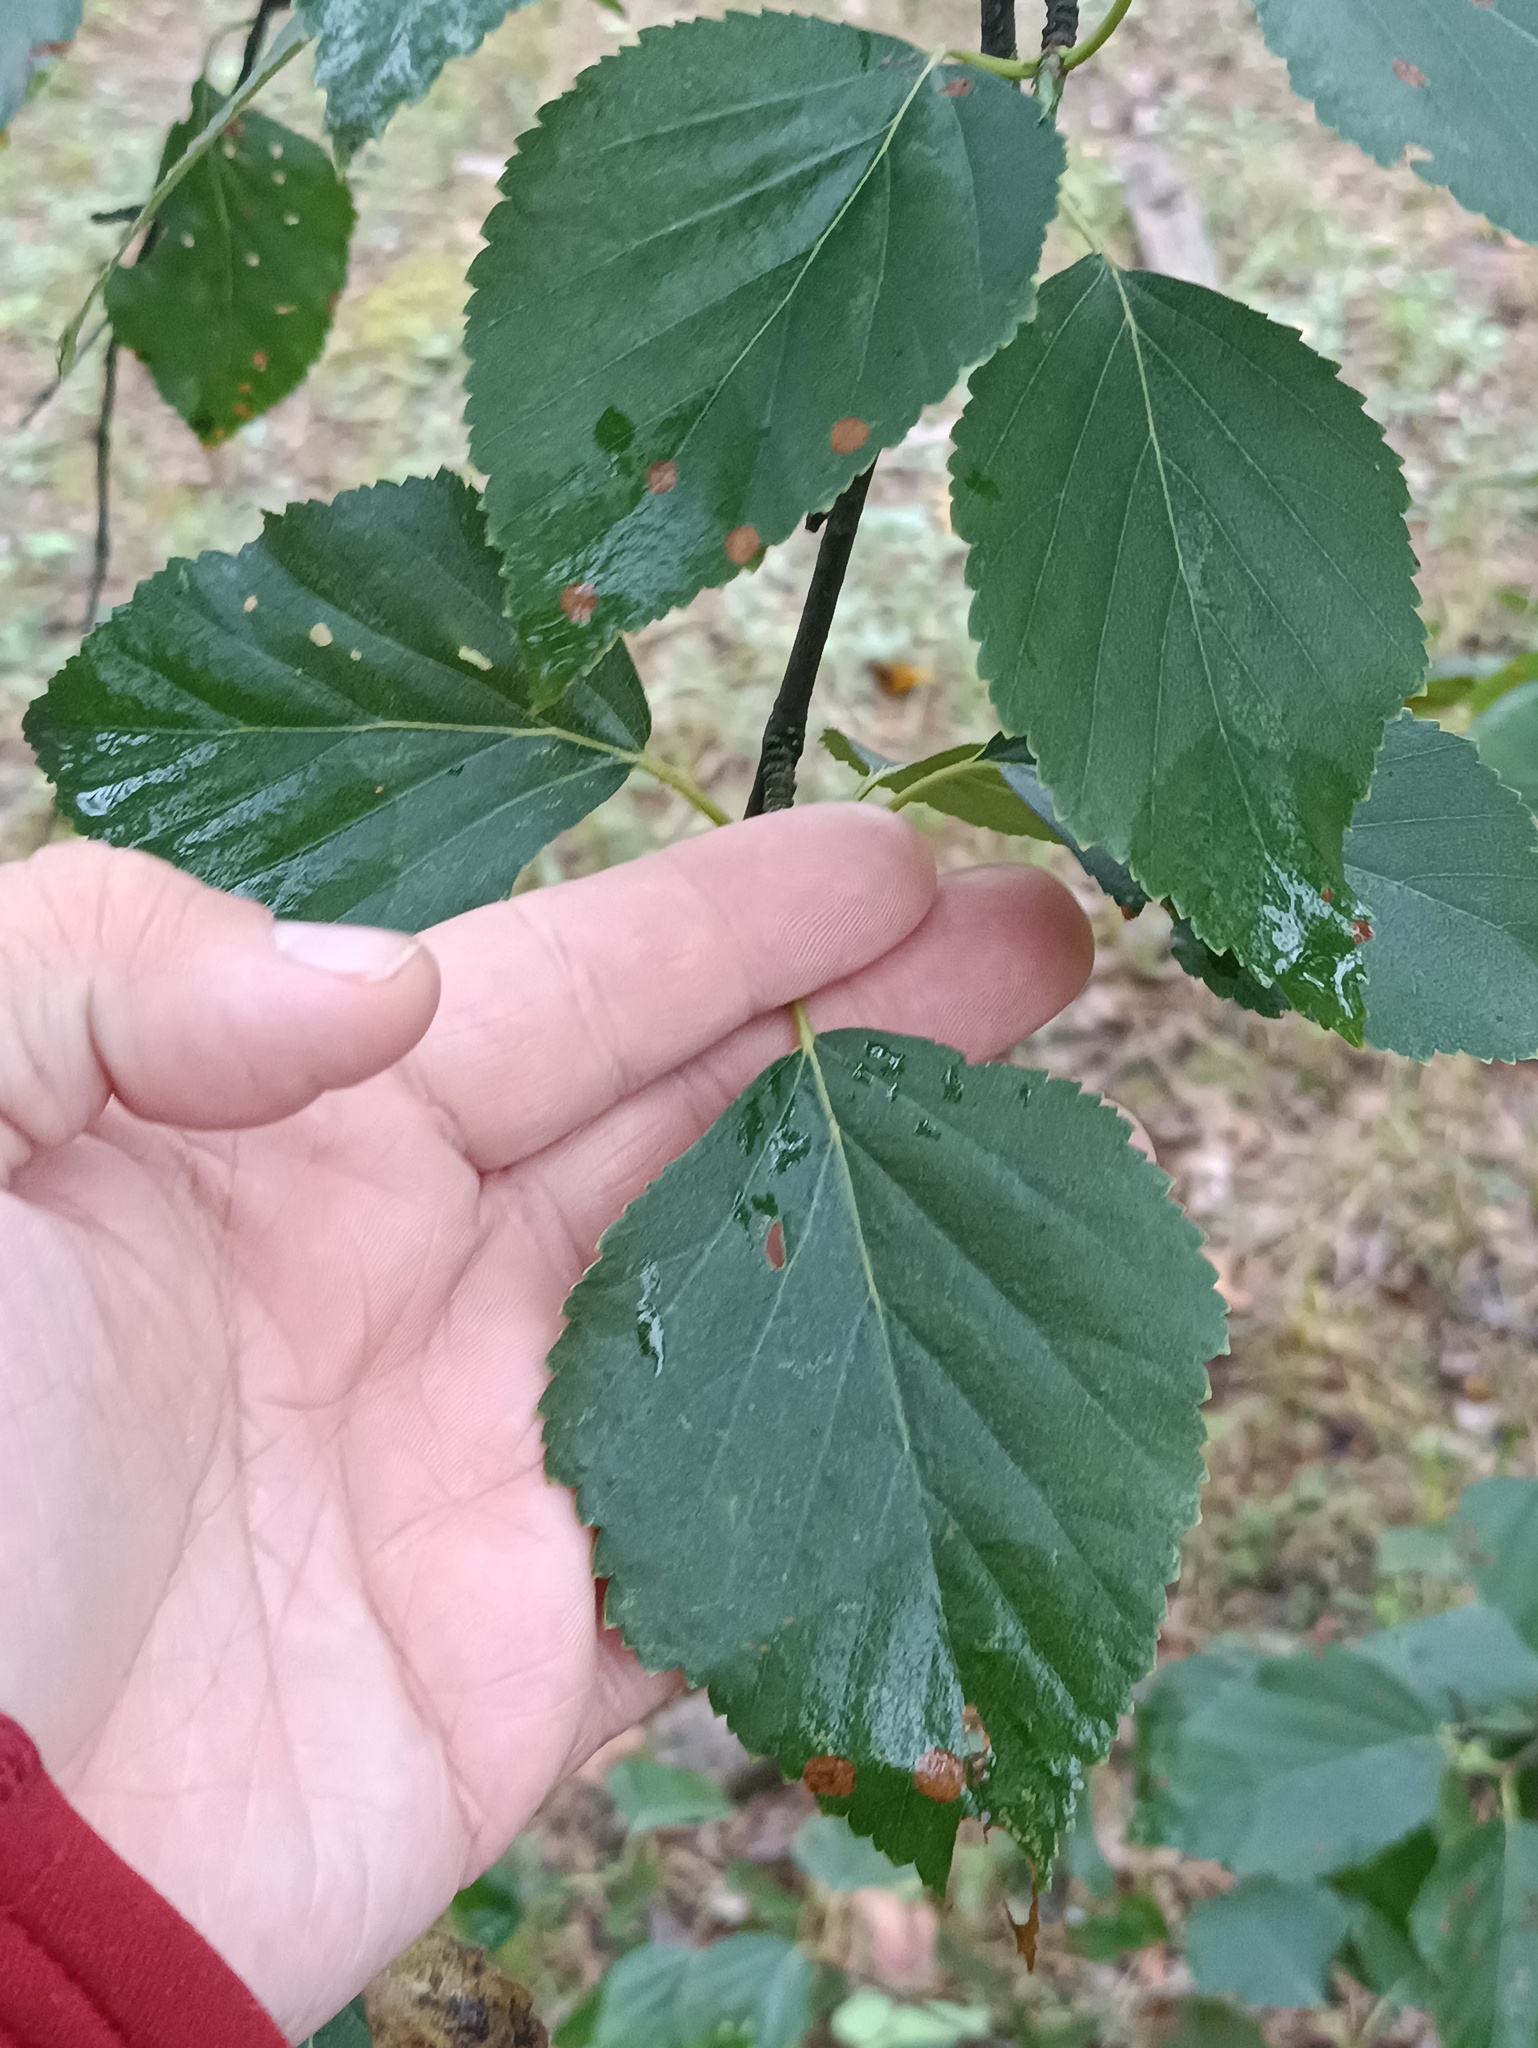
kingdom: Plantae
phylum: Tracheophyta
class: Magnoliopsida
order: Fagales
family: Betulaceae
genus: Betula
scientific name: Betula pubescens
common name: Downy birch
